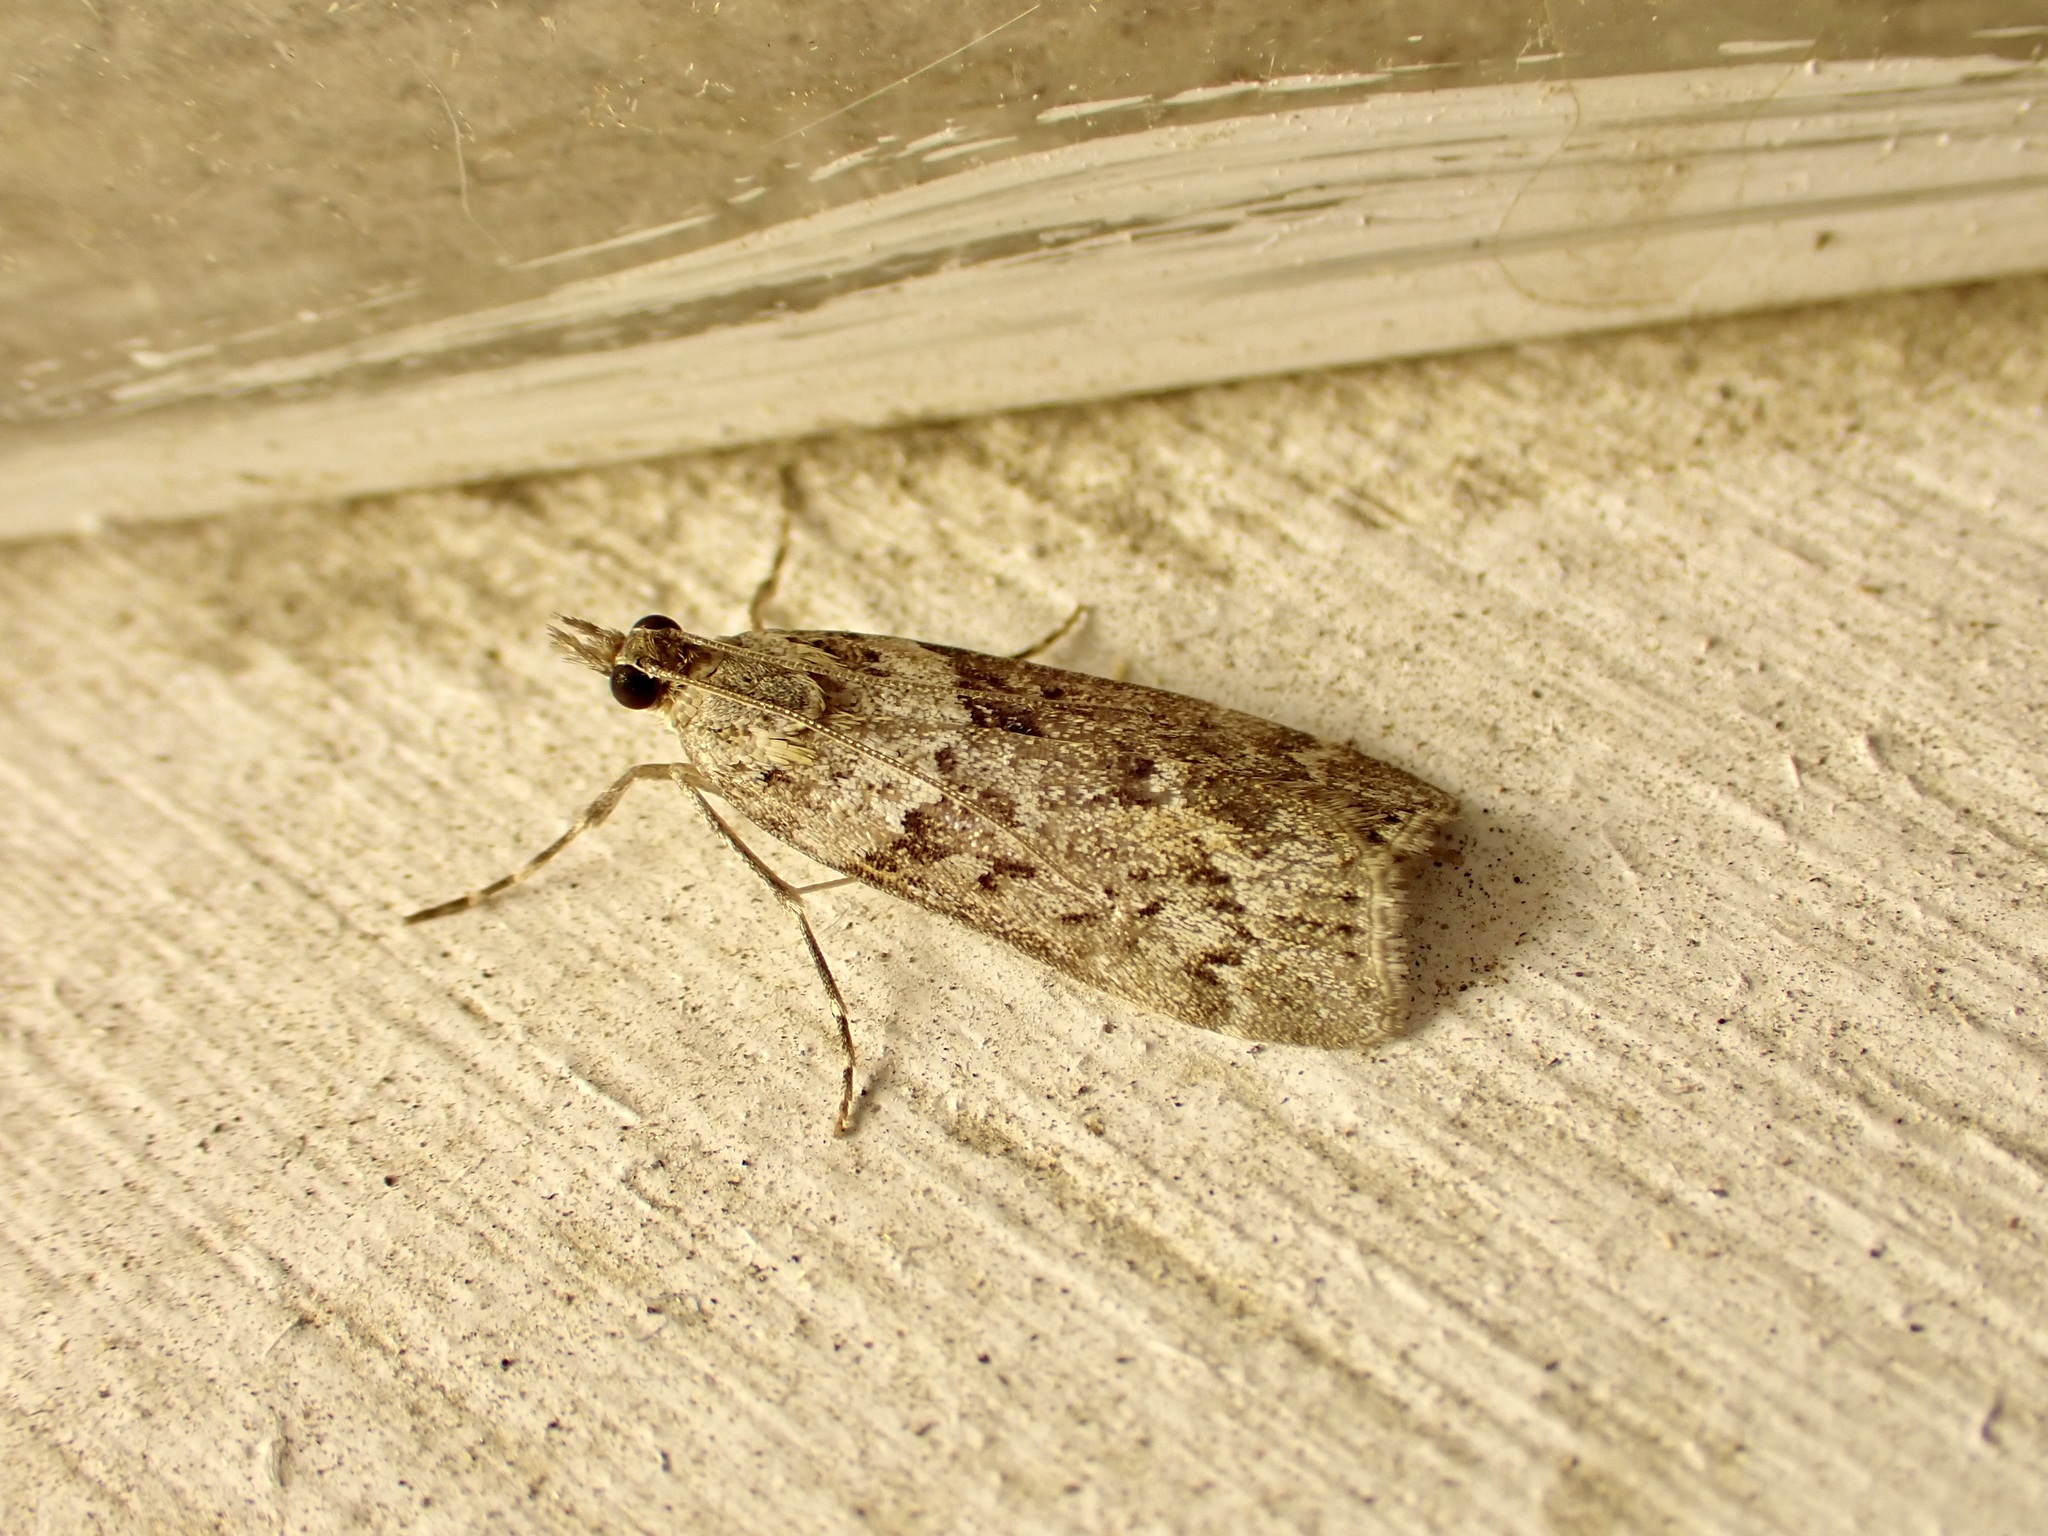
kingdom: Animalia
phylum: Arthropoda
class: Insecta
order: Lepidoptera
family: Crambidae
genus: Eudonia
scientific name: Eudonia submarginalis
